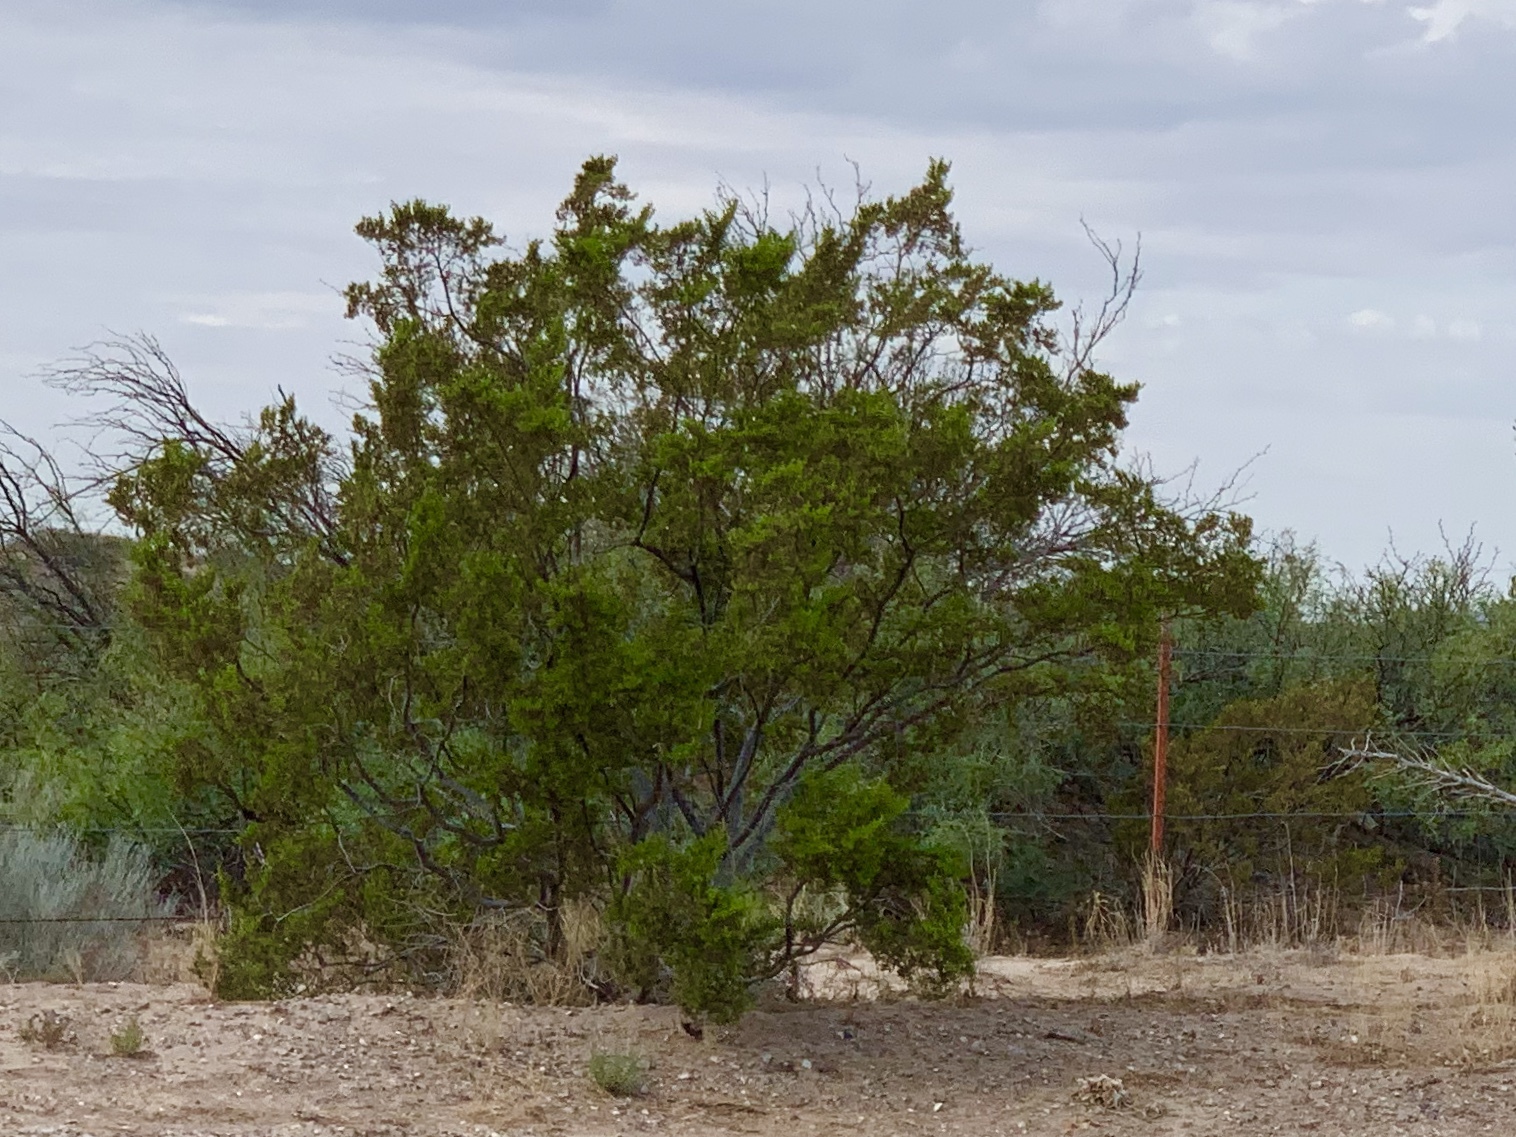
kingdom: Plantae
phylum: Tracheophyta
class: Magnoliopsida
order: Zygophyllales
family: Zygophyllaceae
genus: Larrea
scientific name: Larrea tridentata
